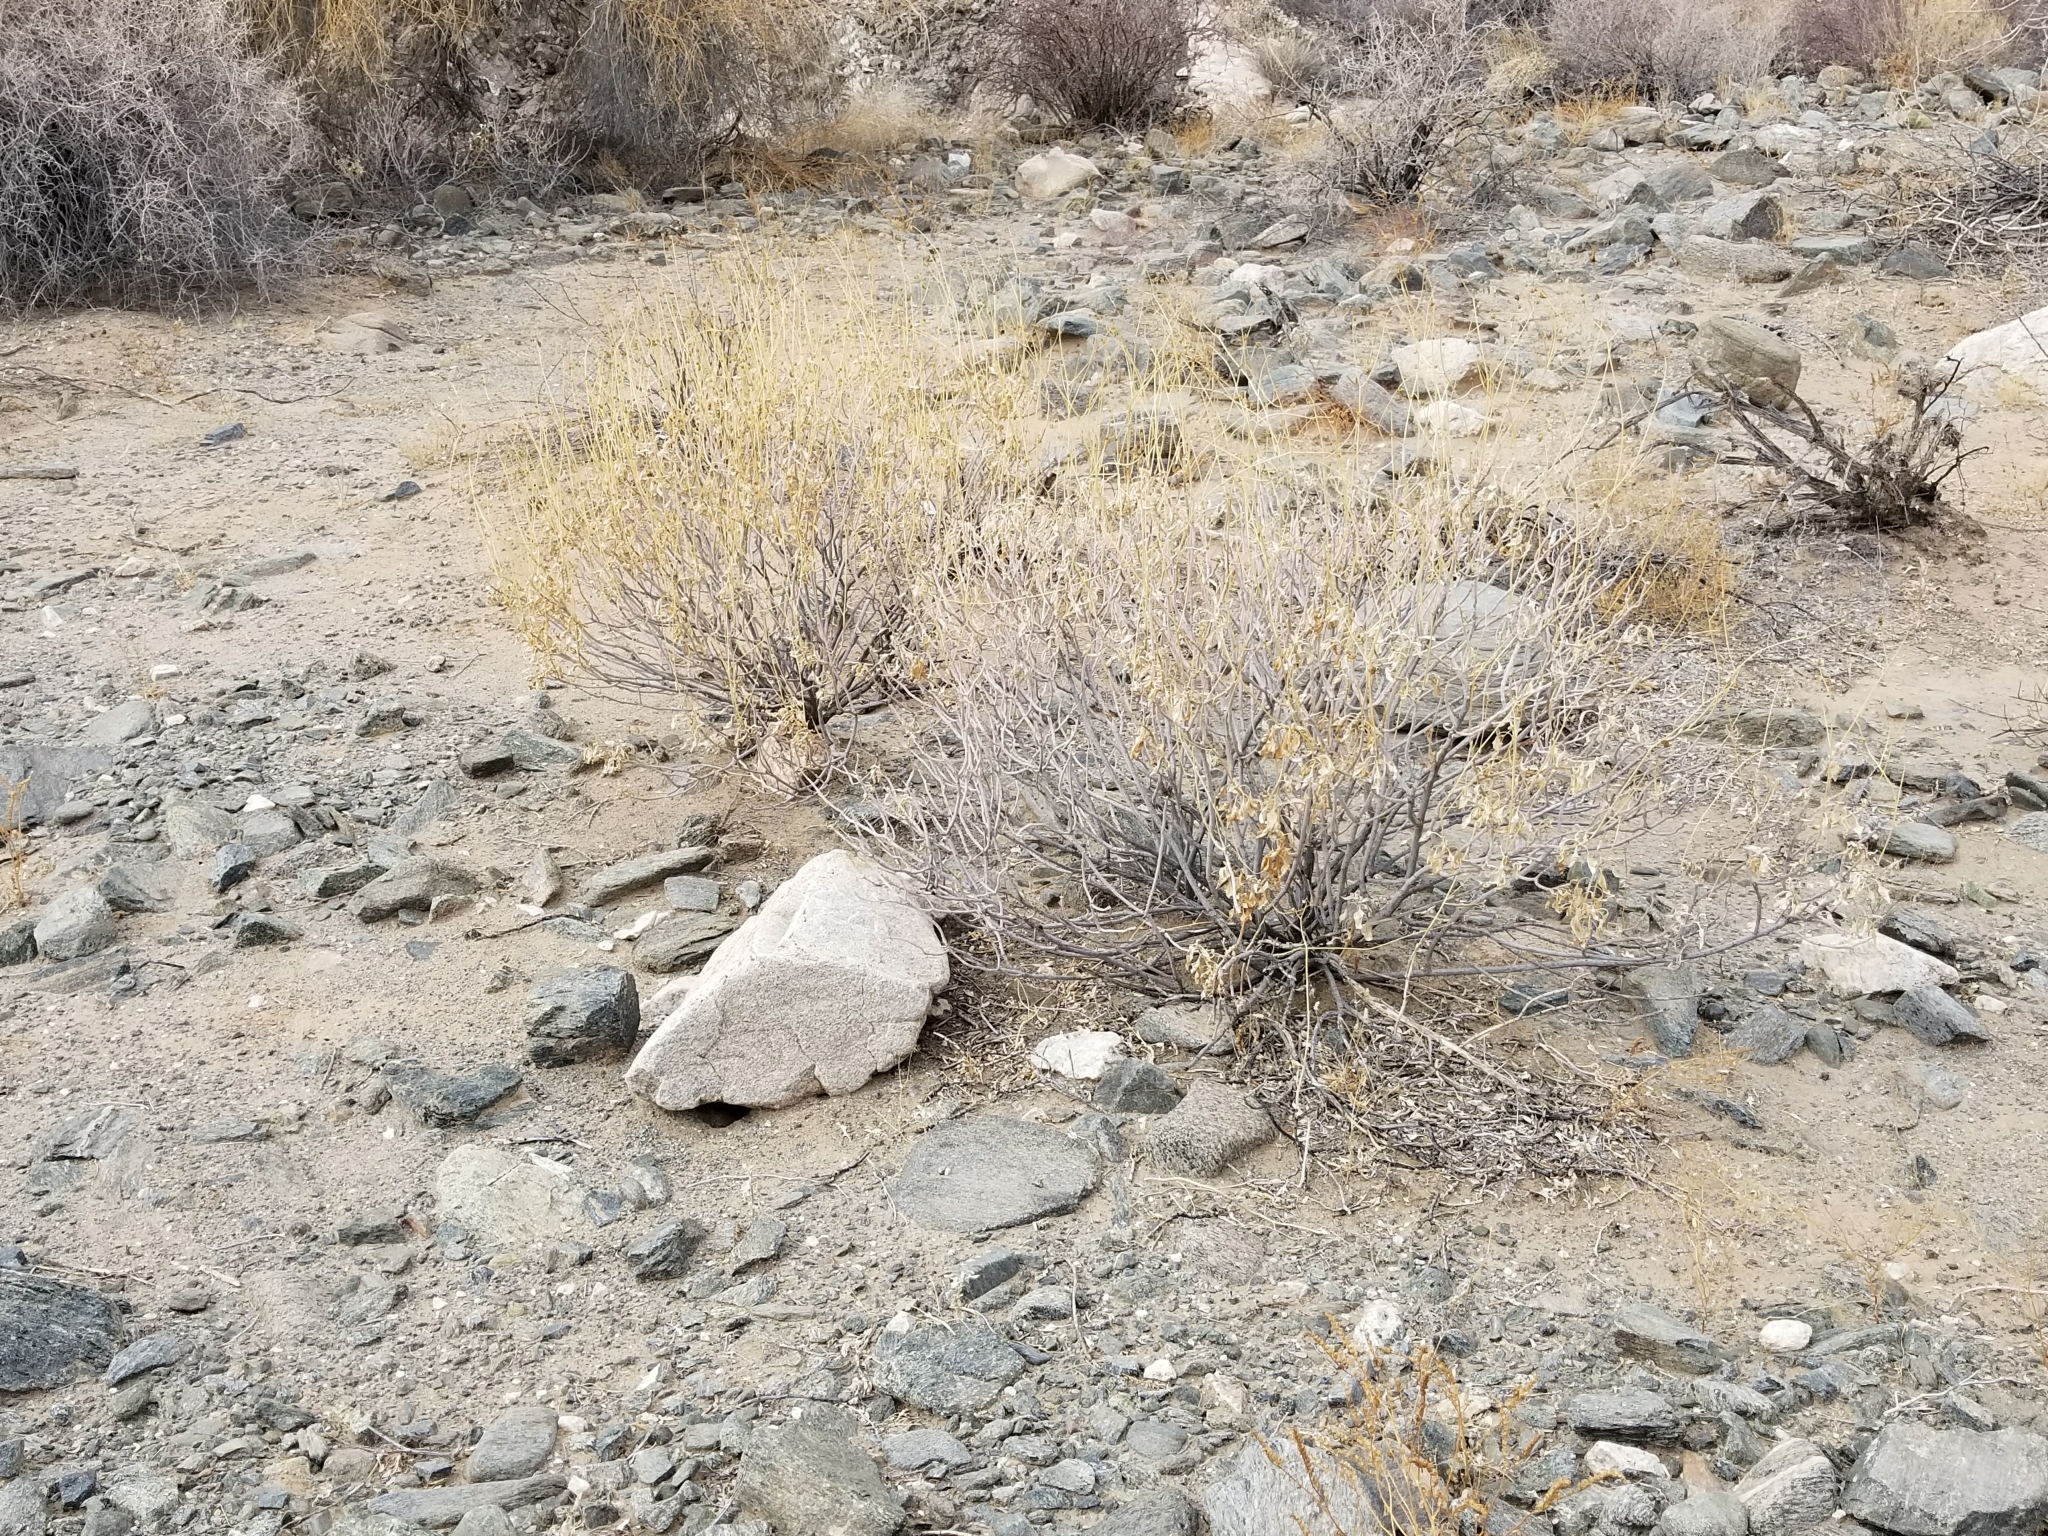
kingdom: Plantae
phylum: Tracheophyta
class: Magnoliopsida
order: Asterales
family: Asteraceae
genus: Encelia
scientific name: Encelia farinosa
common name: Brittlebush
